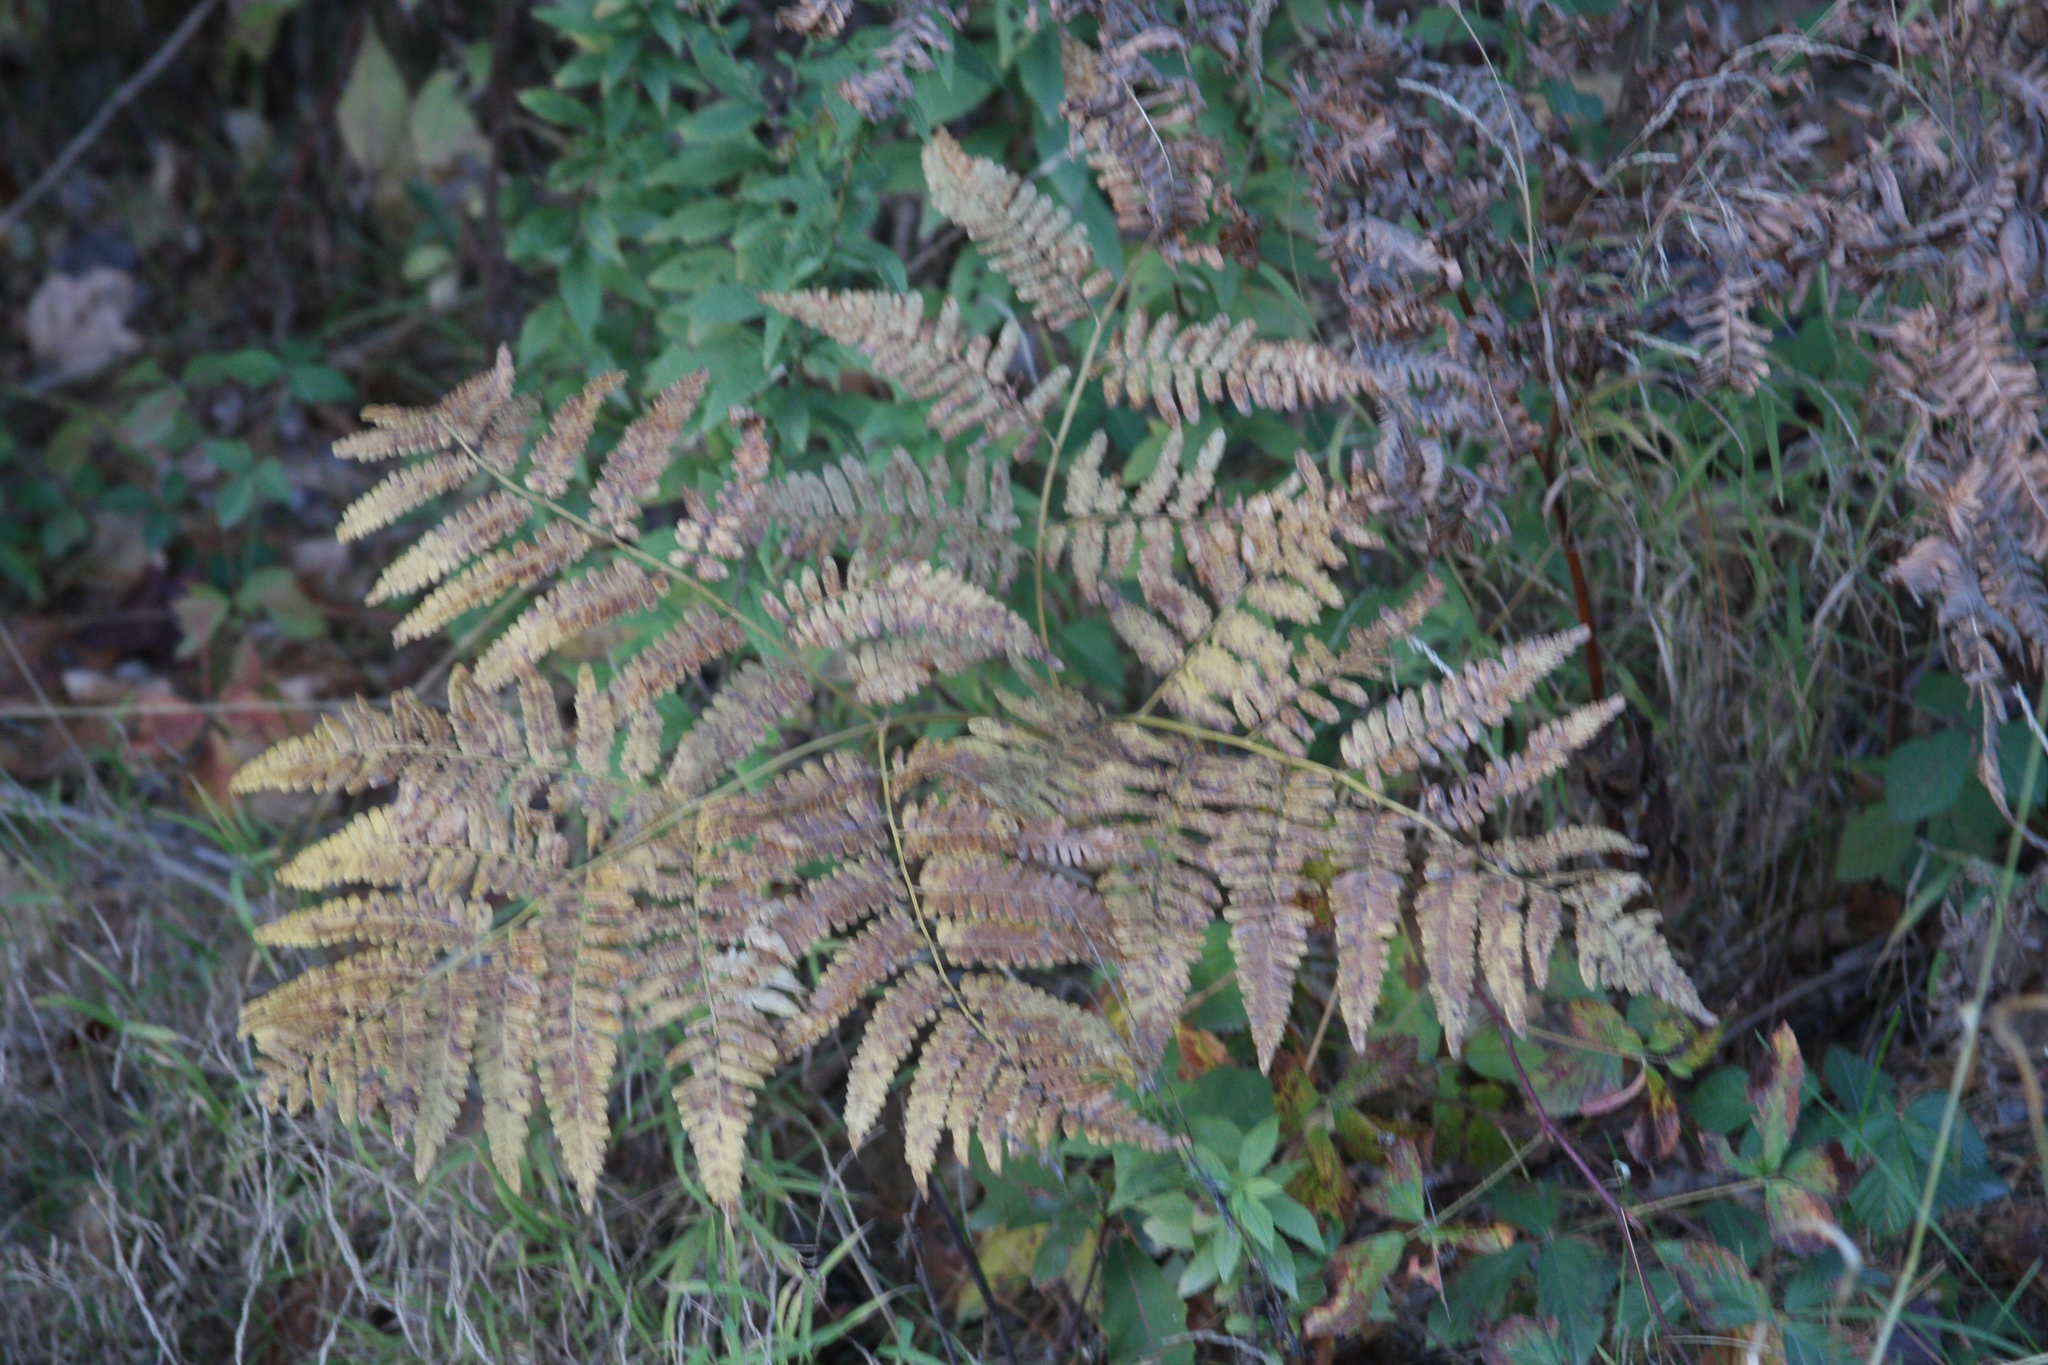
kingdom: Plantae
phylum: Tracheophyta
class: Polypodiopsida
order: Polypodiales
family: Dennstaedtiaceae
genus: Pteridium
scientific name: Pteridium aquilinum
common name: Bracken
